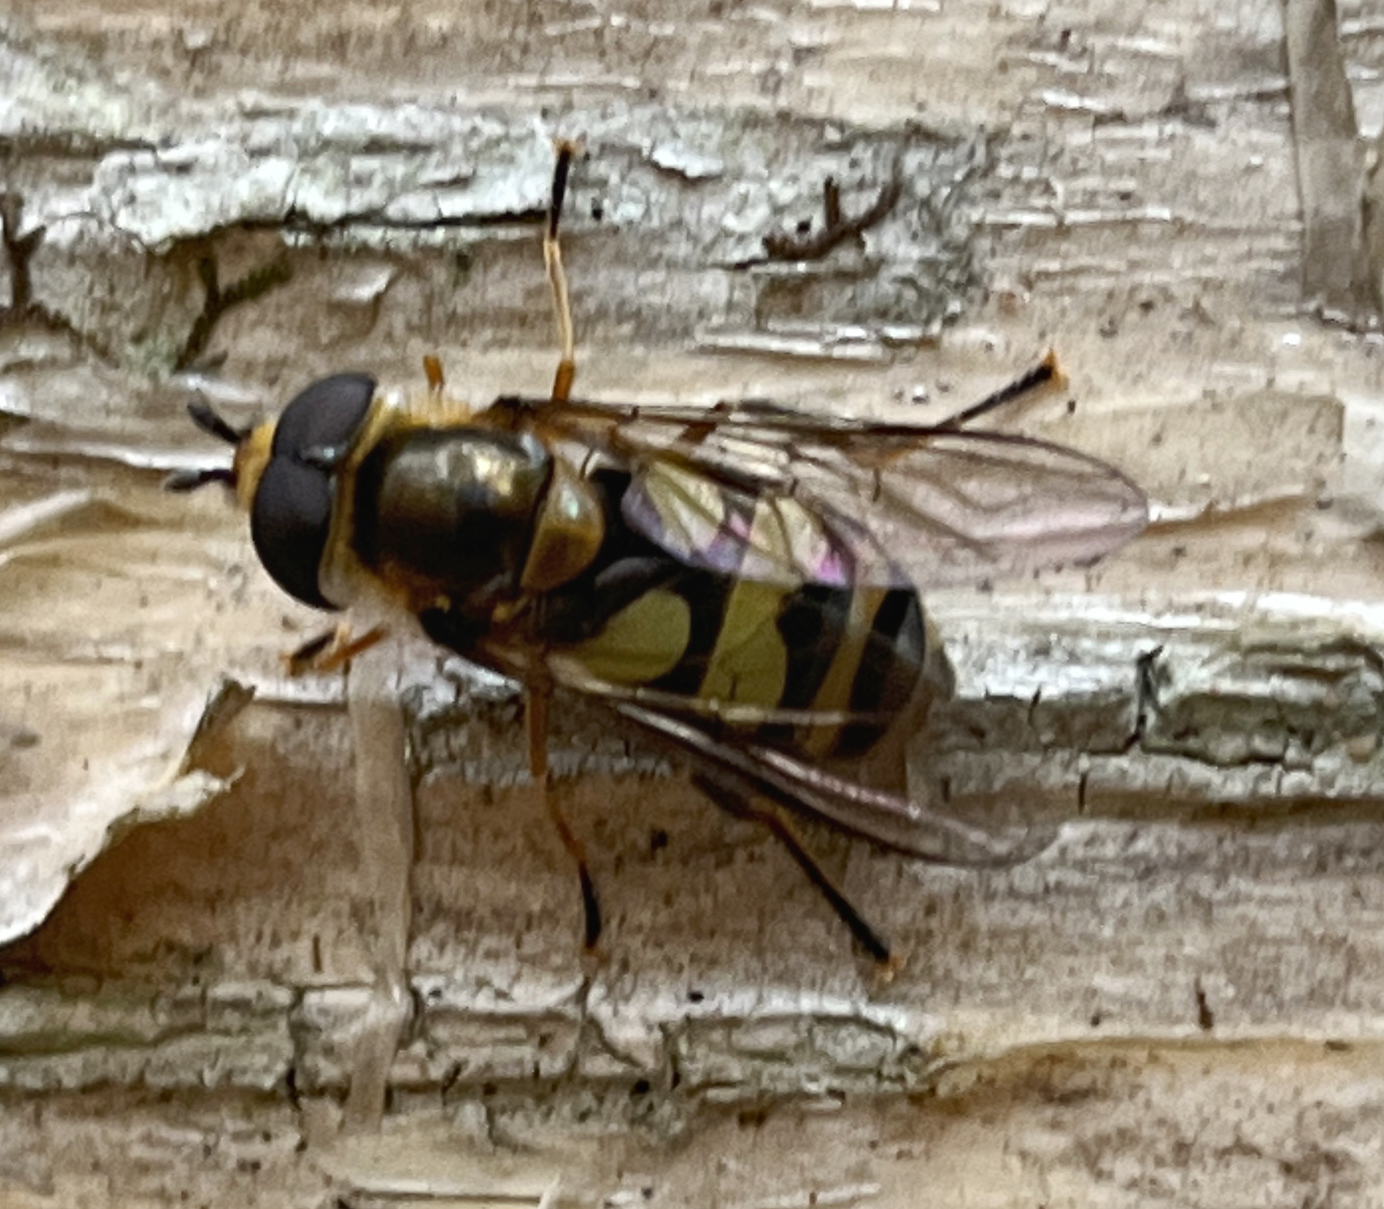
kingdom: Animalia
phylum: Arthropoda
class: Insecta
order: Diptera
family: Syrphidae
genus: Didea
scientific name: Didea fuscipes
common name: Undivided lucent
